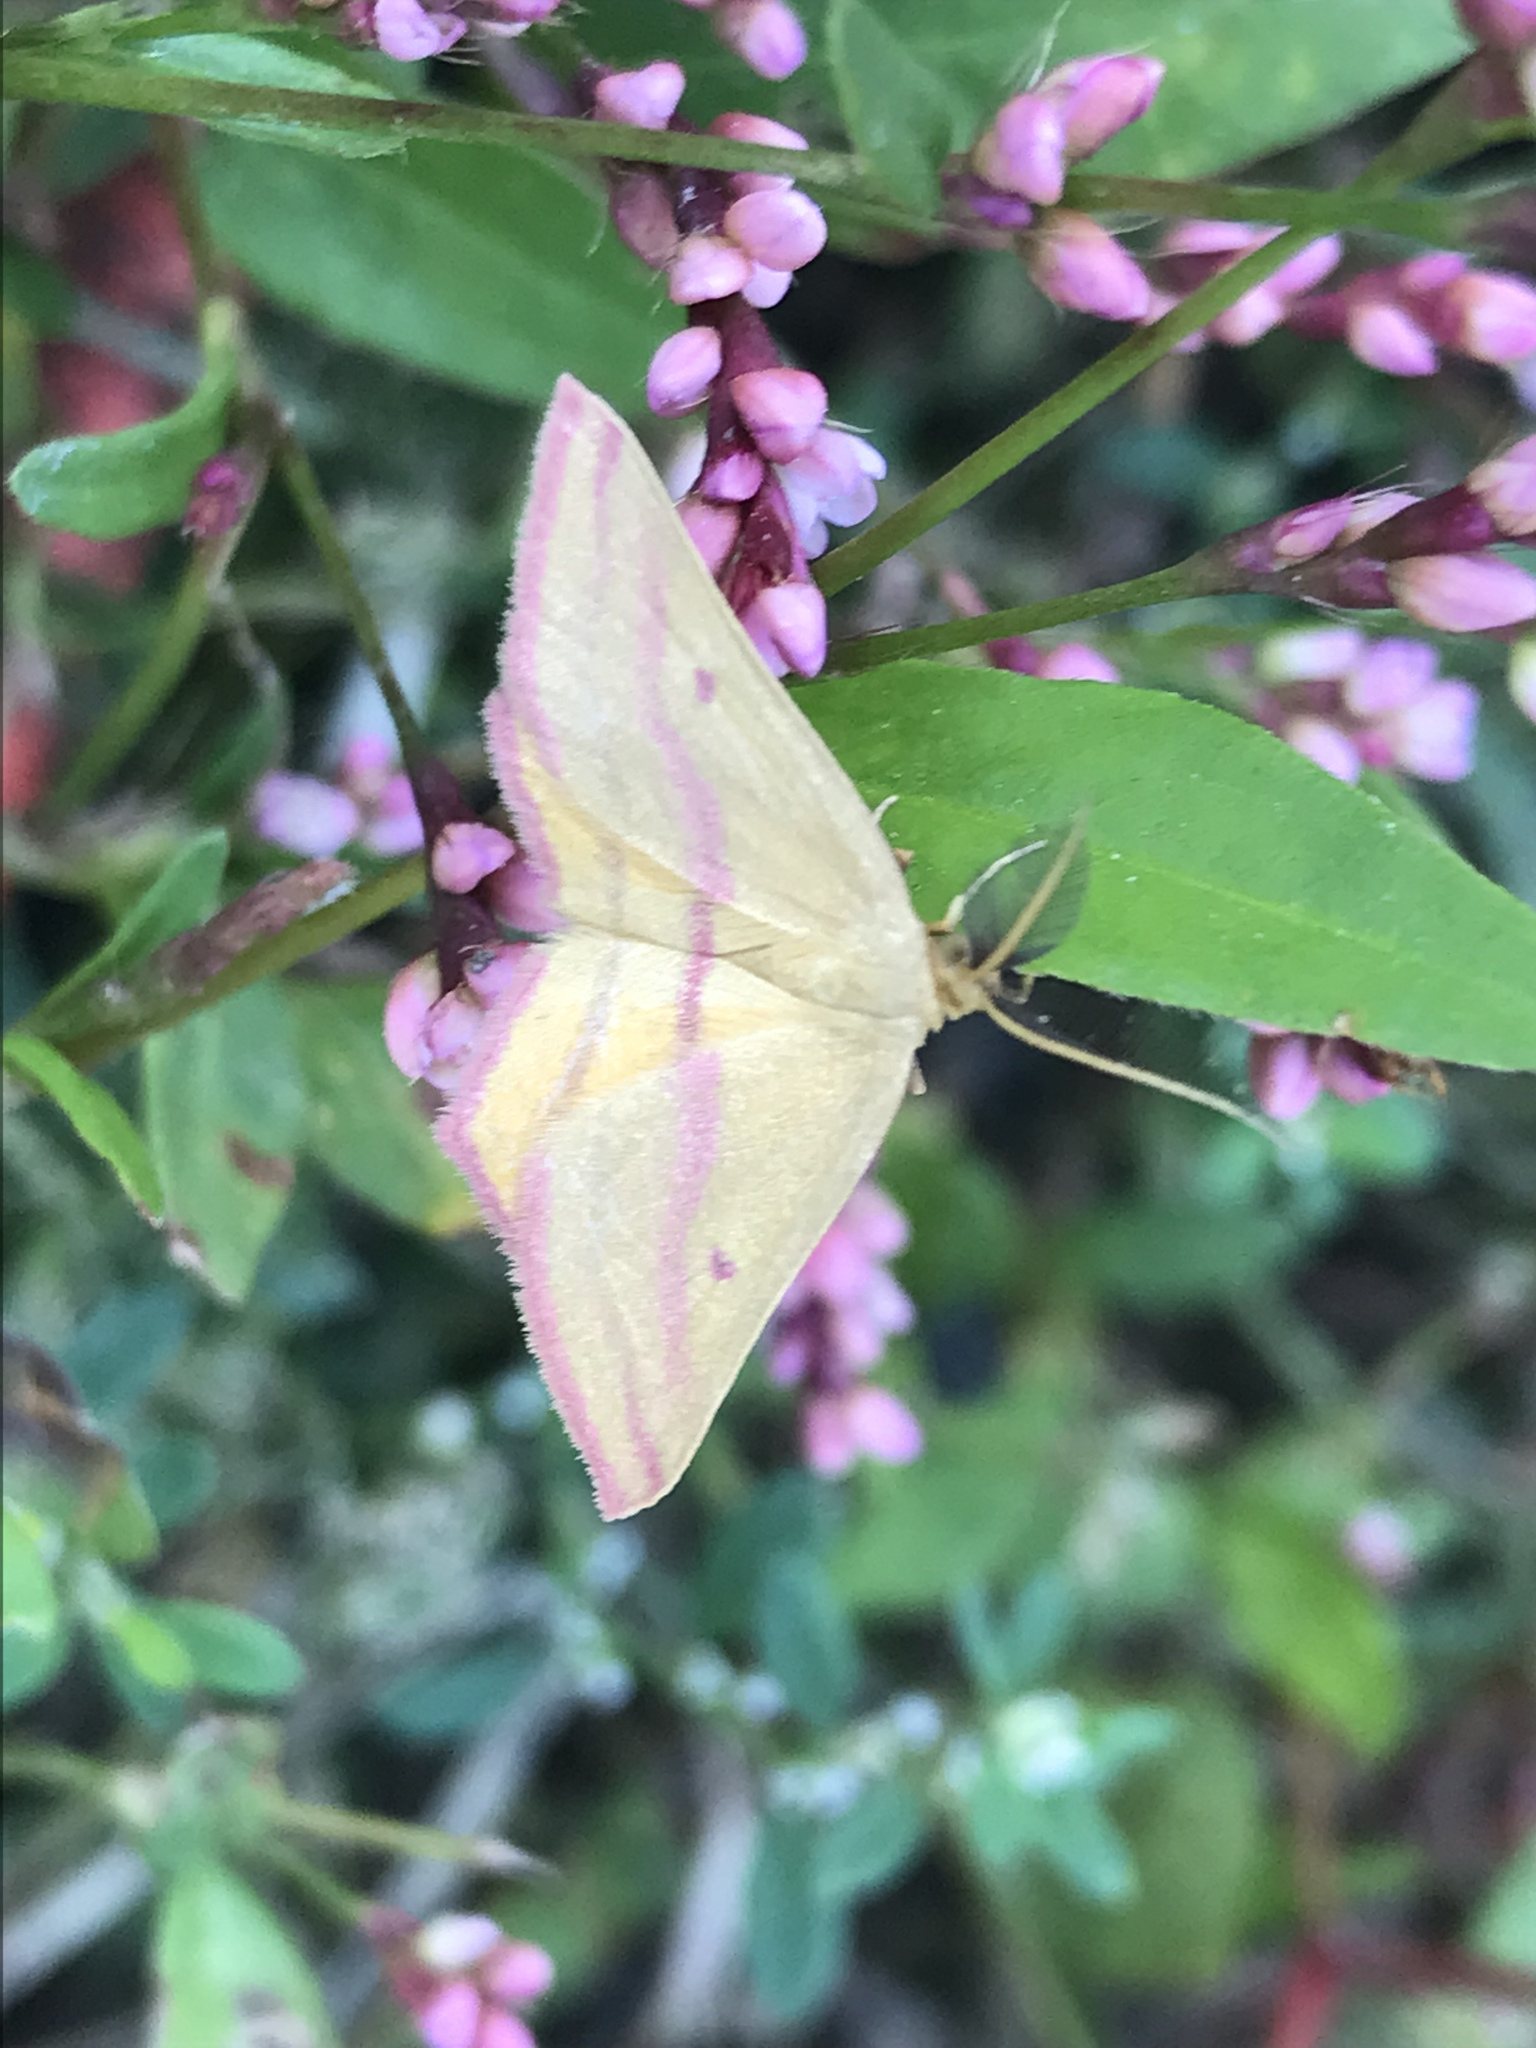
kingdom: Animalia
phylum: Arthropoda
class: Insecta
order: Lepidoptera
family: Geometridae
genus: Haematopis
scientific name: Haematopis grataria
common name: Chickweed geometer
